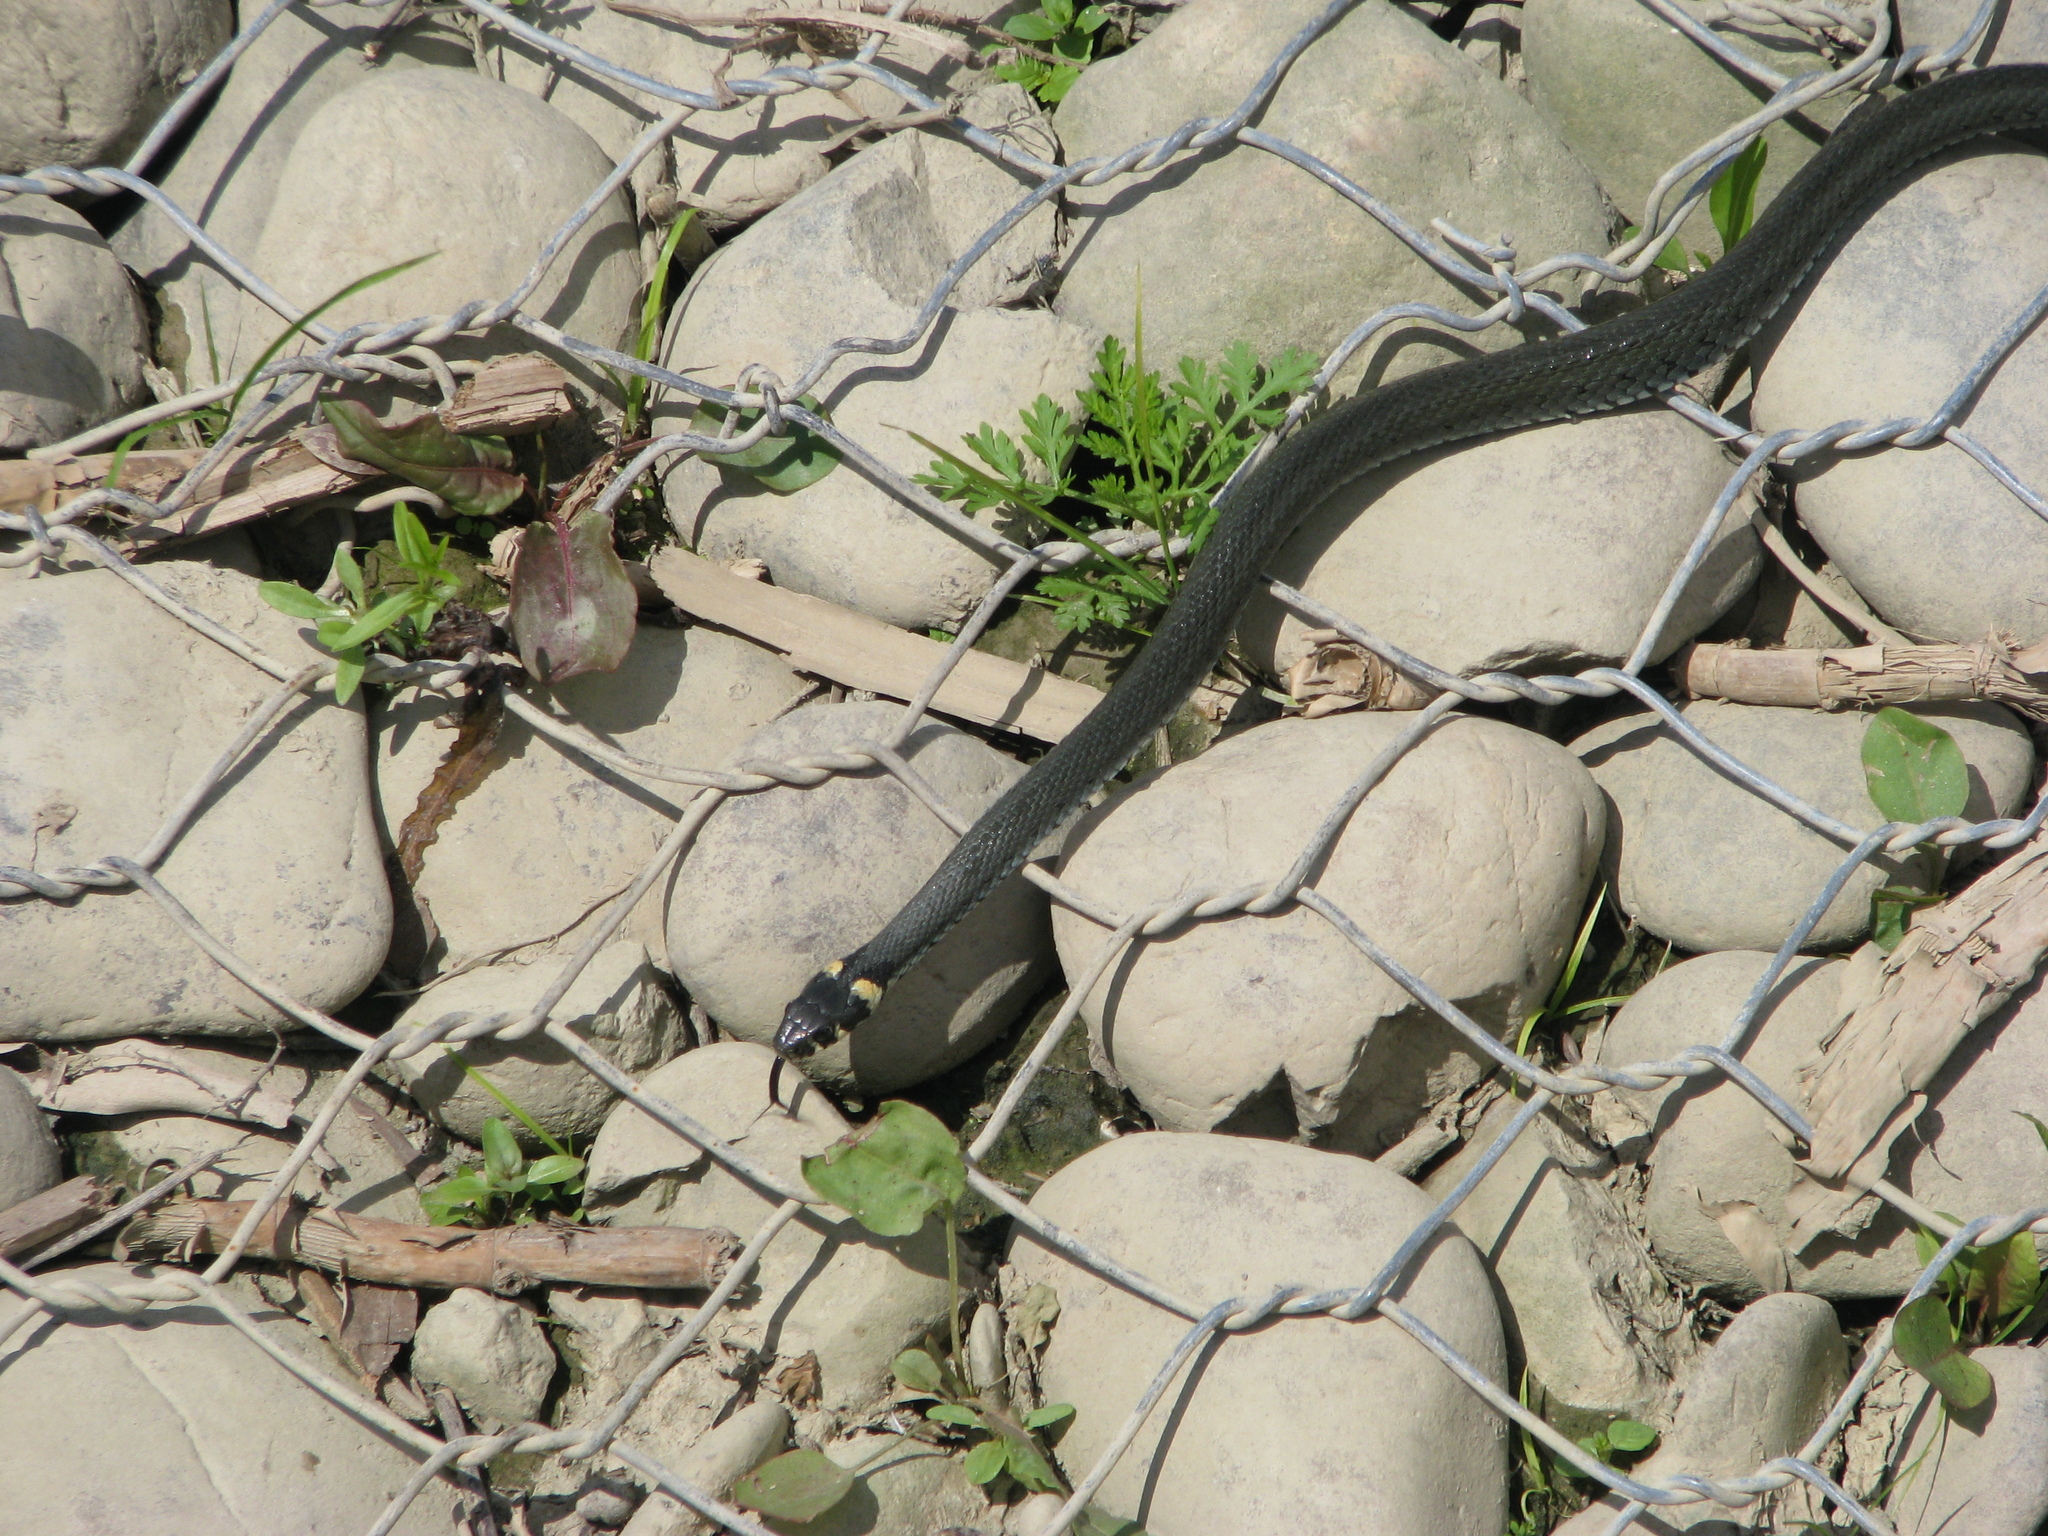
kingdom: Animalia
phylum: Chordata
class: Squamata
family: Colubridae
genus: Natrix
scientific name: Natrix natrix
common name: Grass snake
